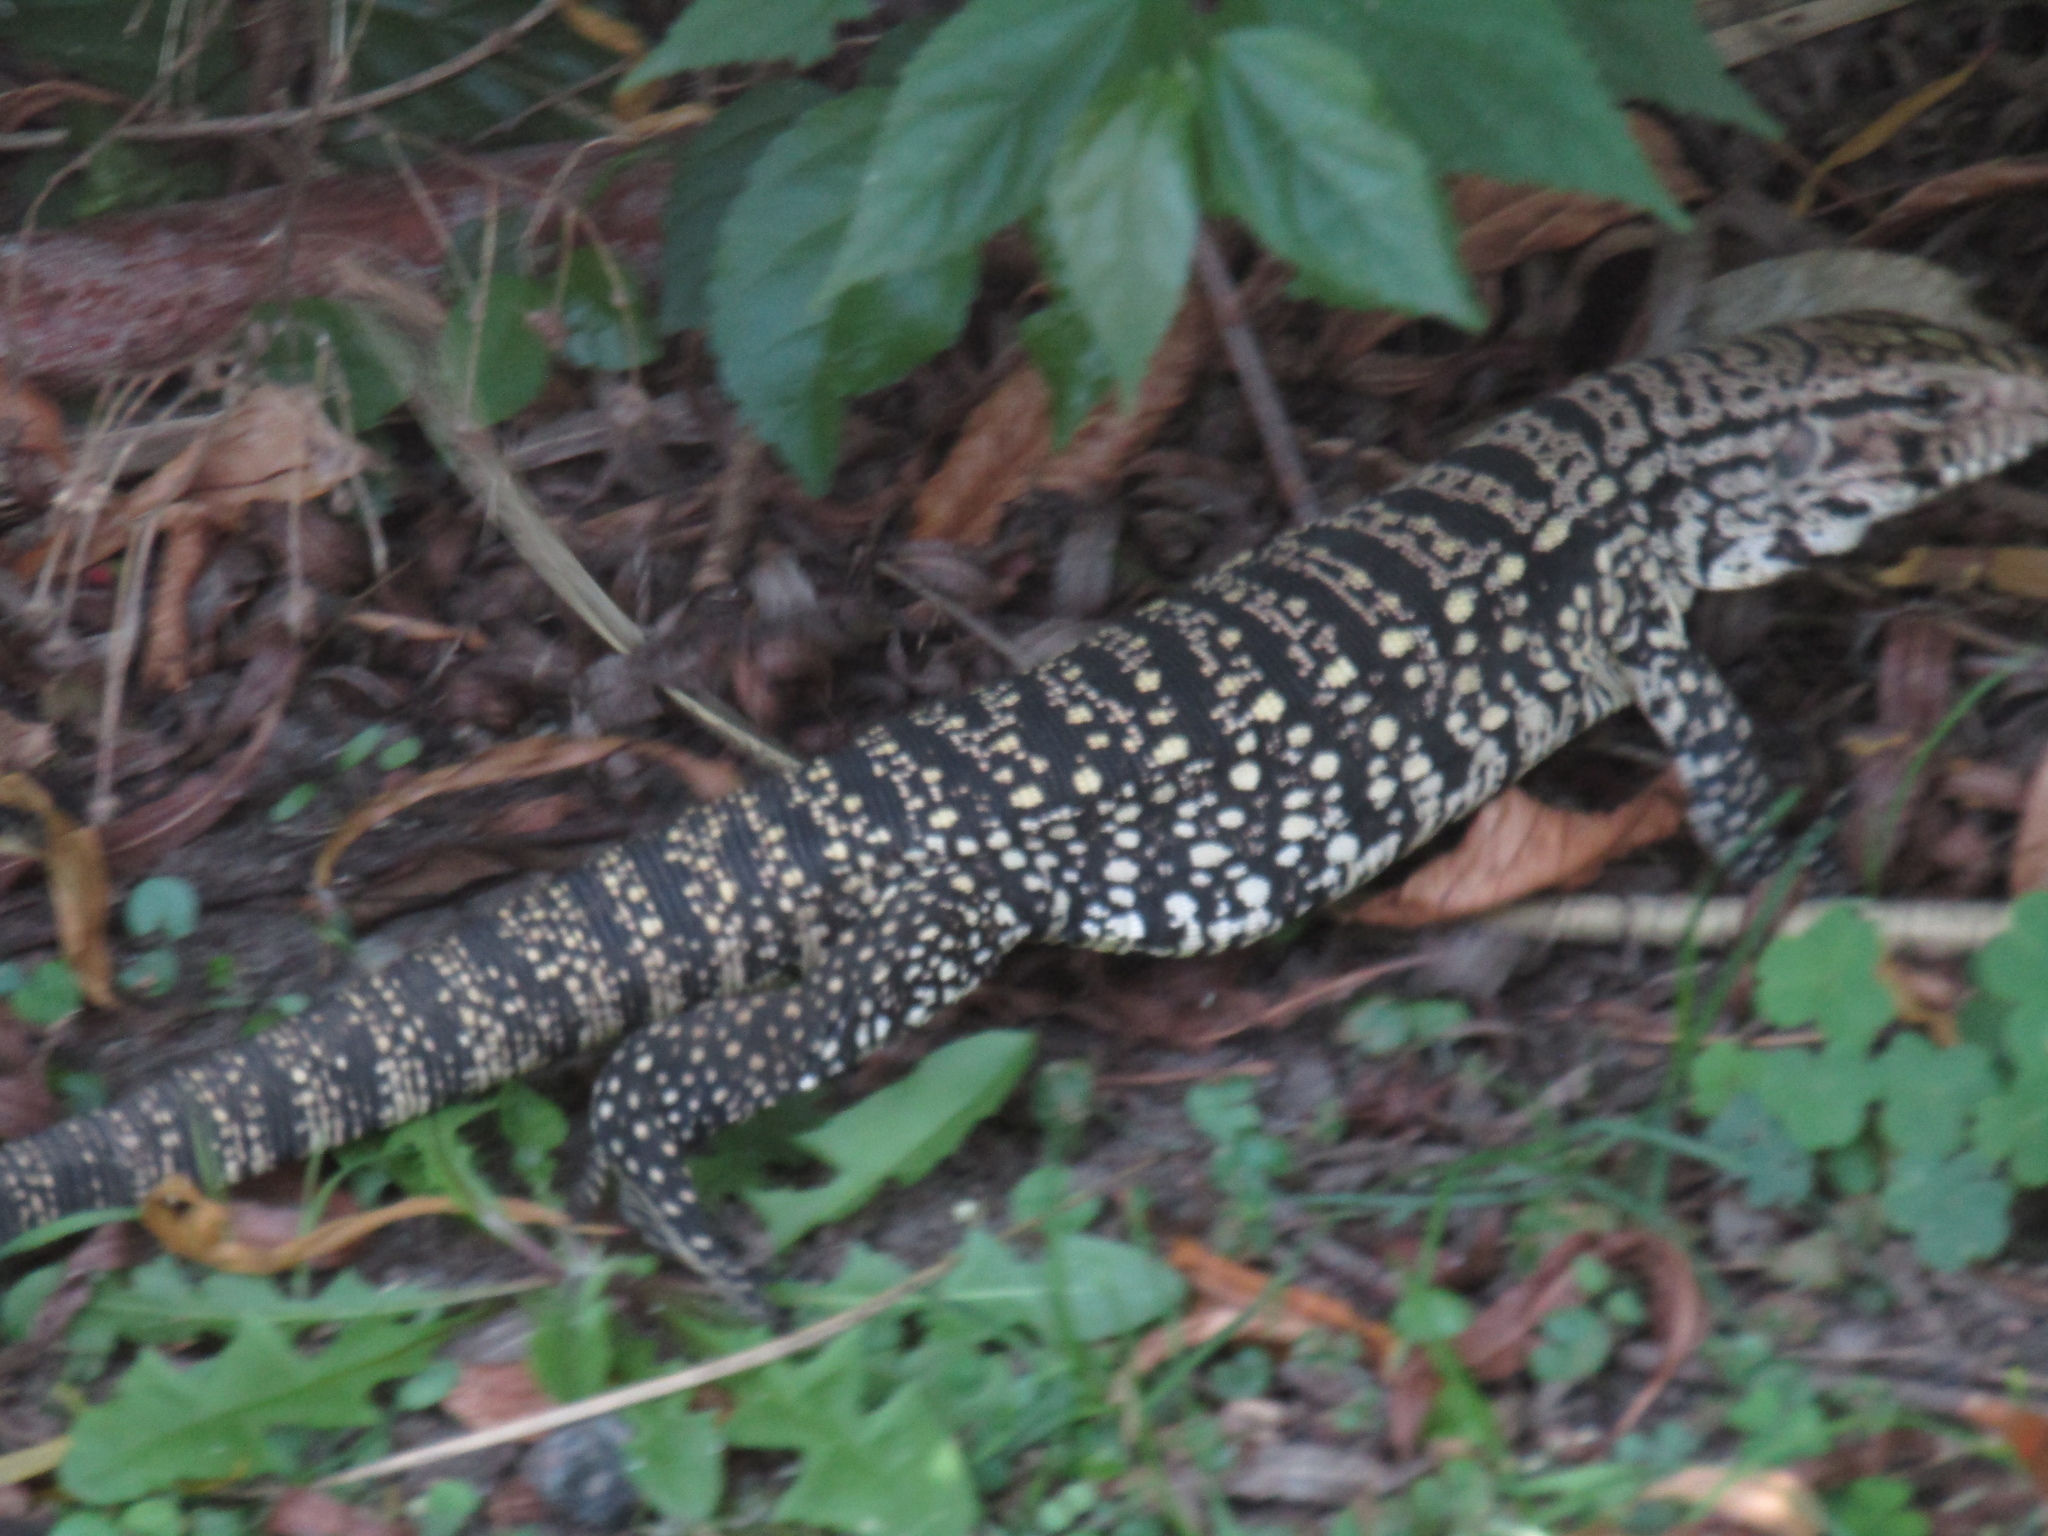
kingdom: Animalia
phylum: Chordata
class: Squamata
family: Teiidae
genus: Salvator
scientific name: Salvator merianae
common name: Argentine black and white tegu
